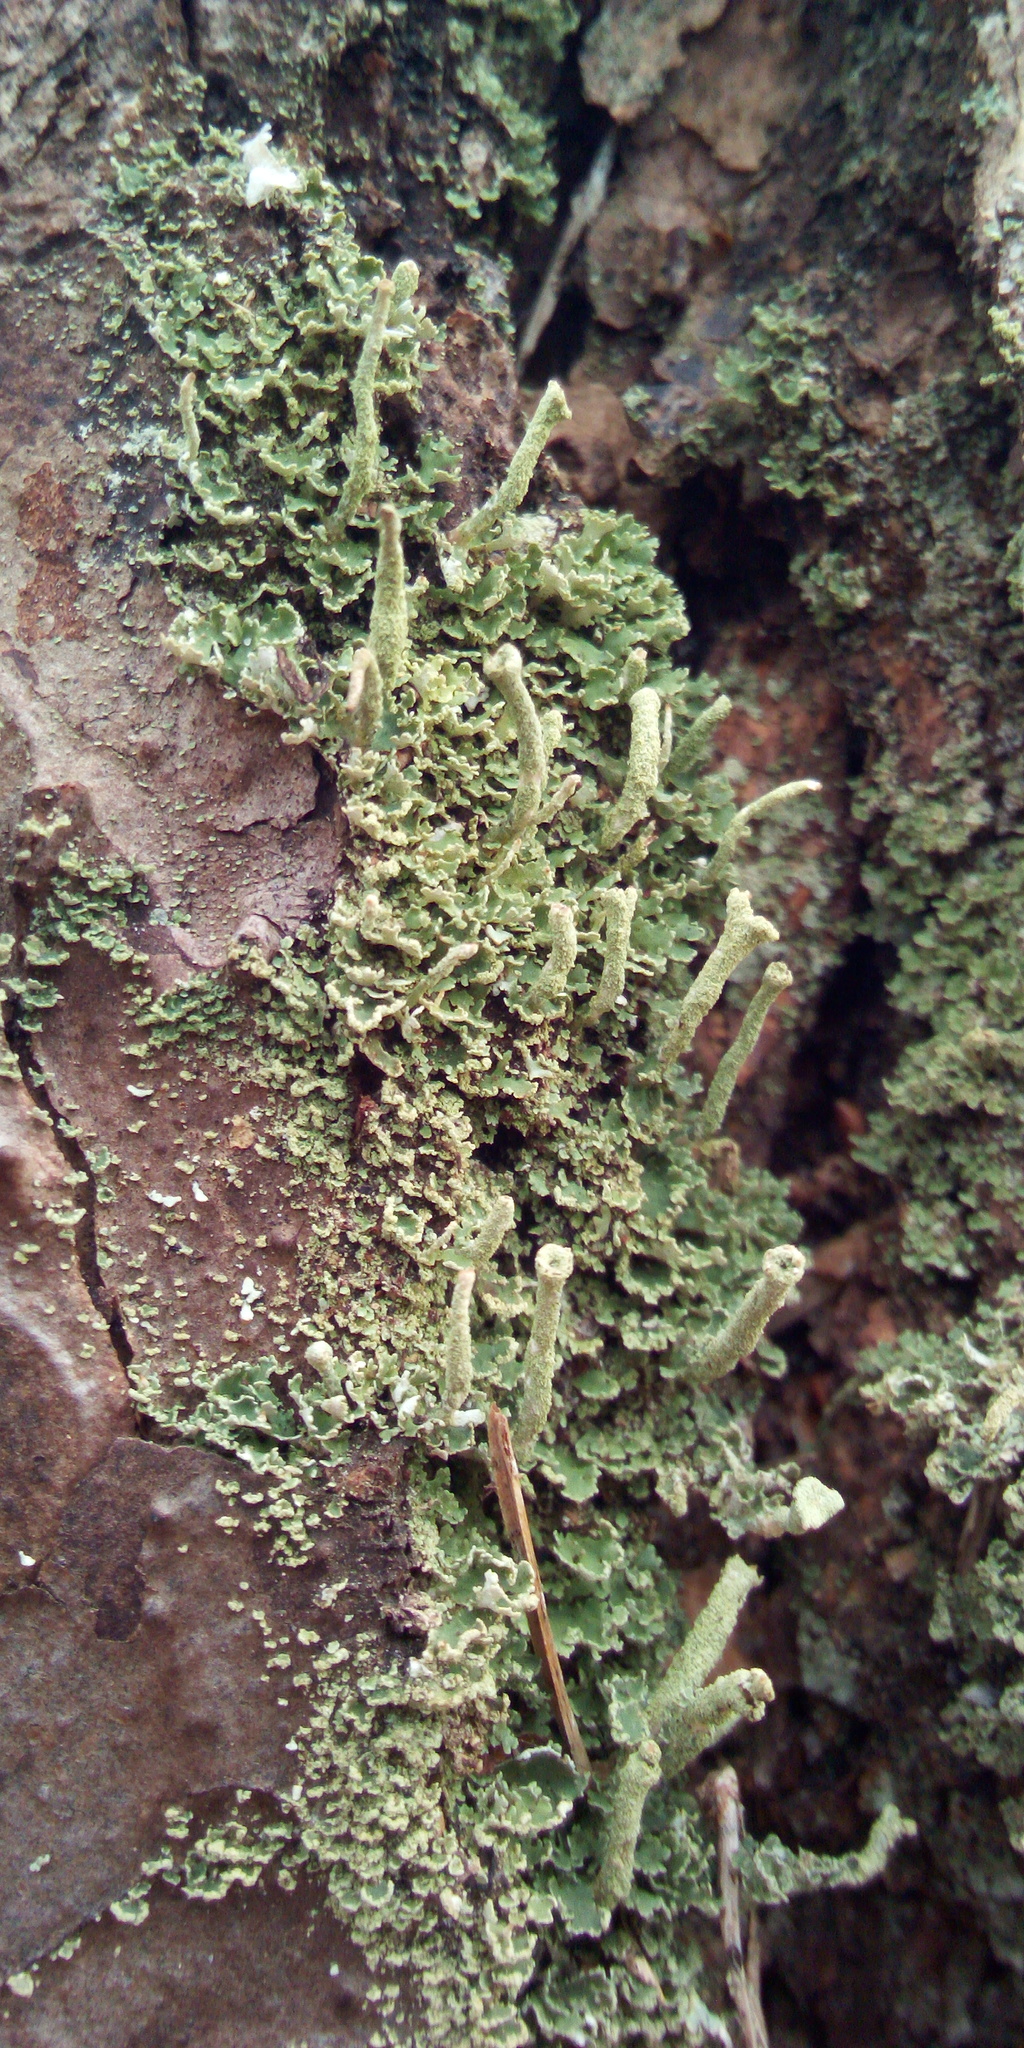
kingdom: Fungi
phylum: Ascomycota
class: Lecanoromycetes
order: Lecanorales
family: Cladoniaceae
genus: Cladonia
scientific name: Cladonia
